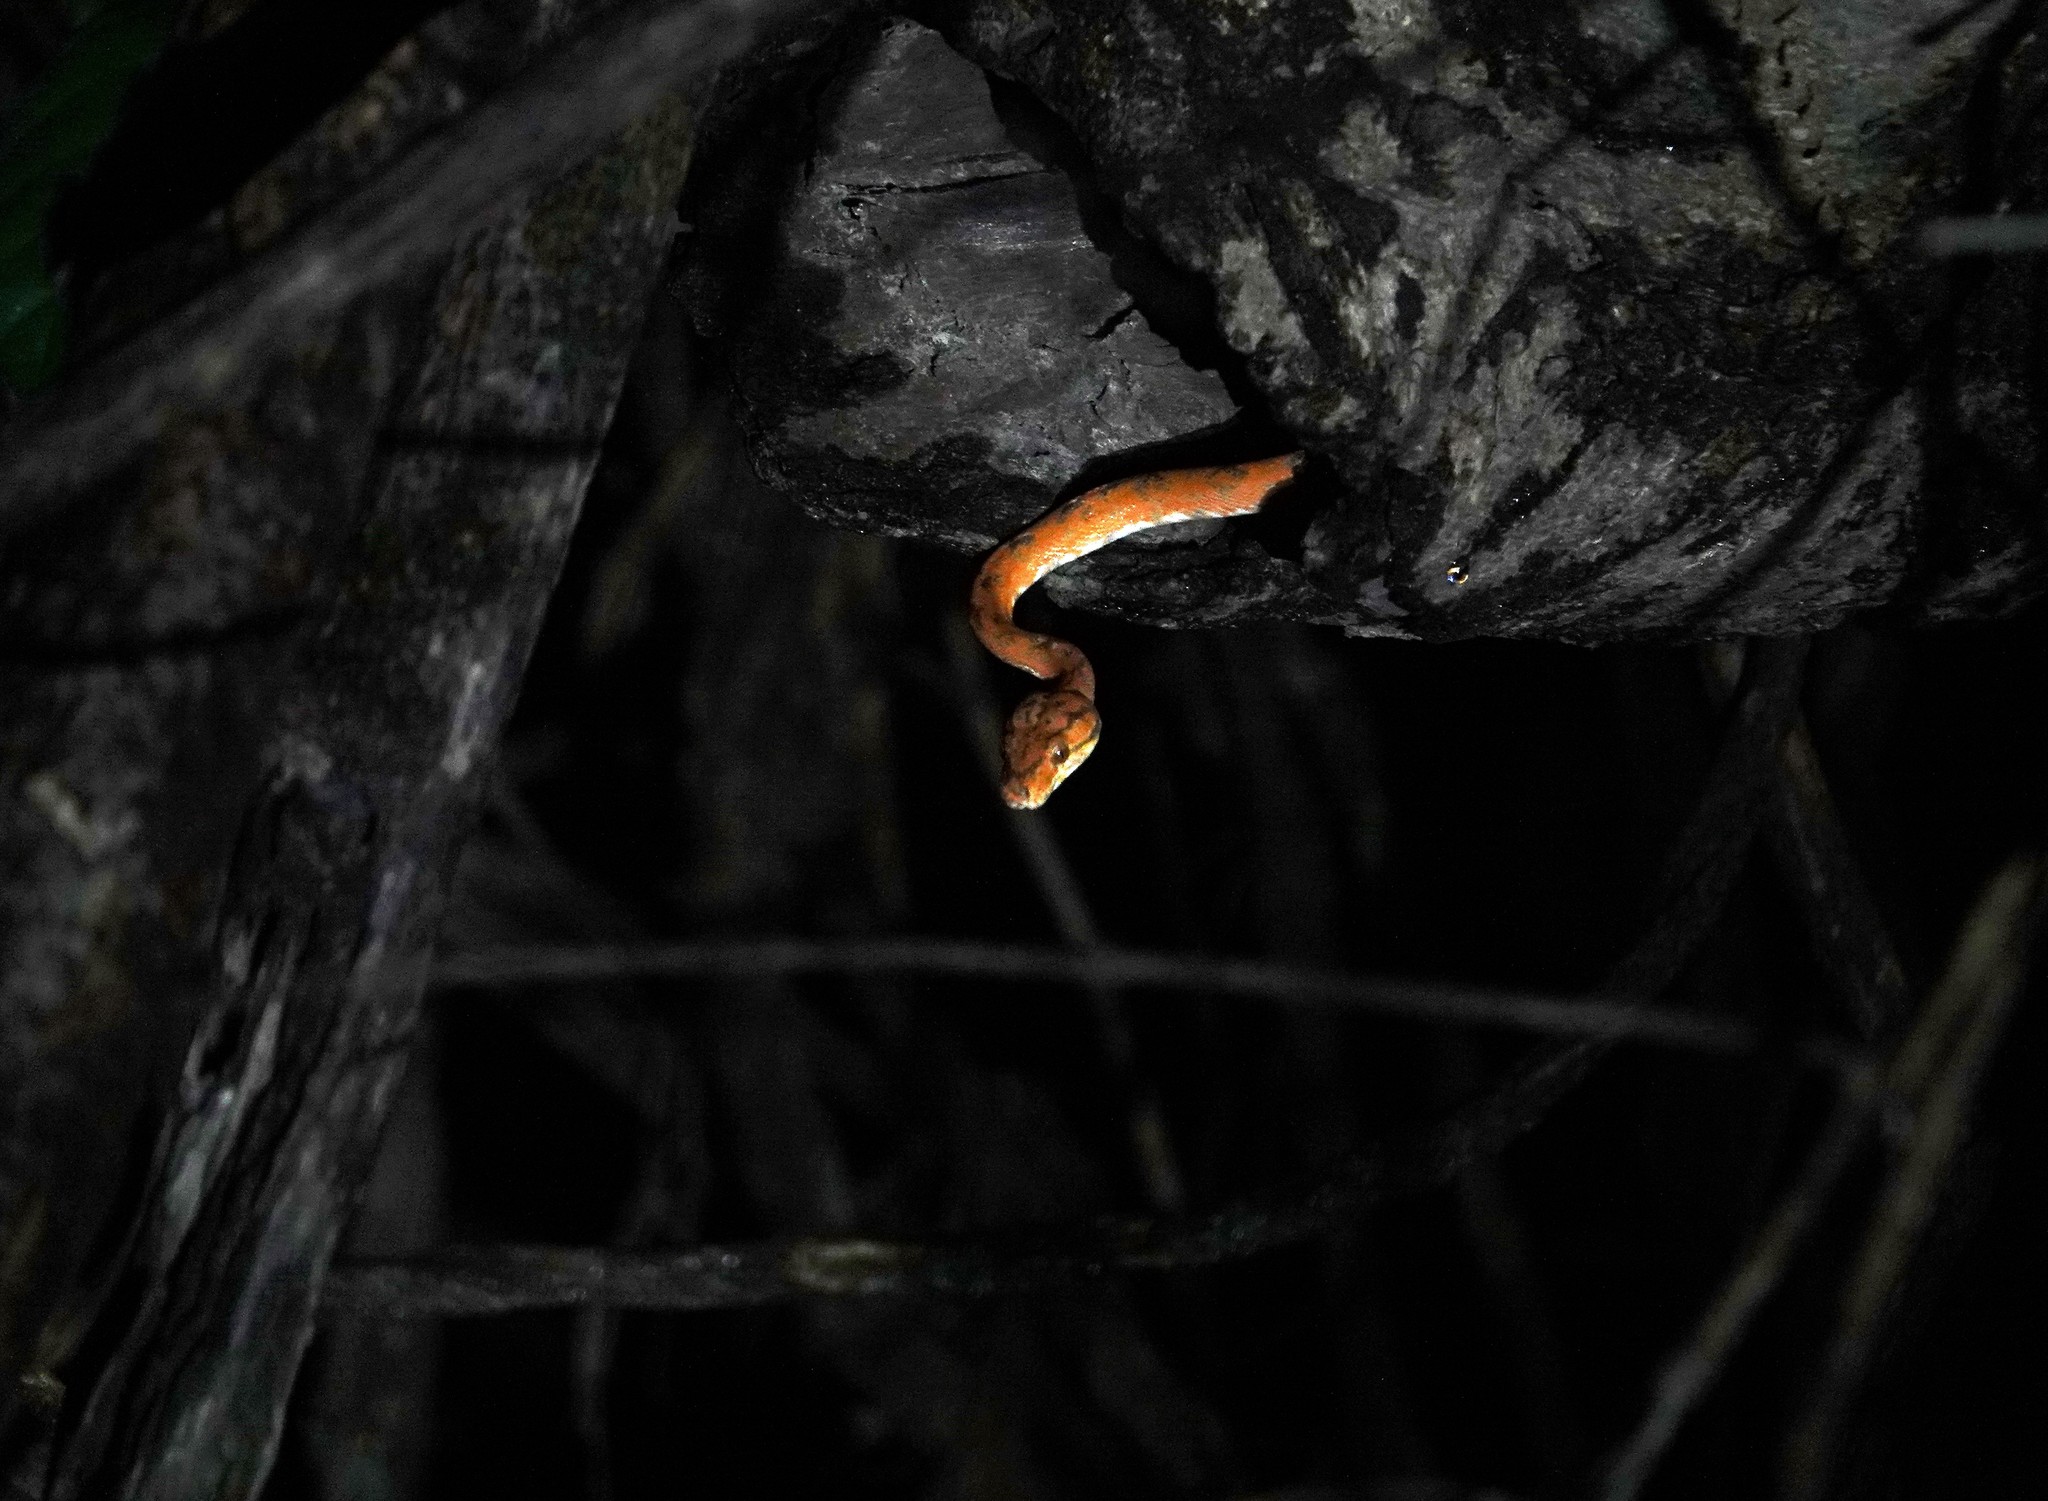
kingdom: Animalia
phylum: Chordata
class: Squamata
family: Boidae
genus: Corallus
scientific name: Corallus hortulana
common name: Garden tree boa
